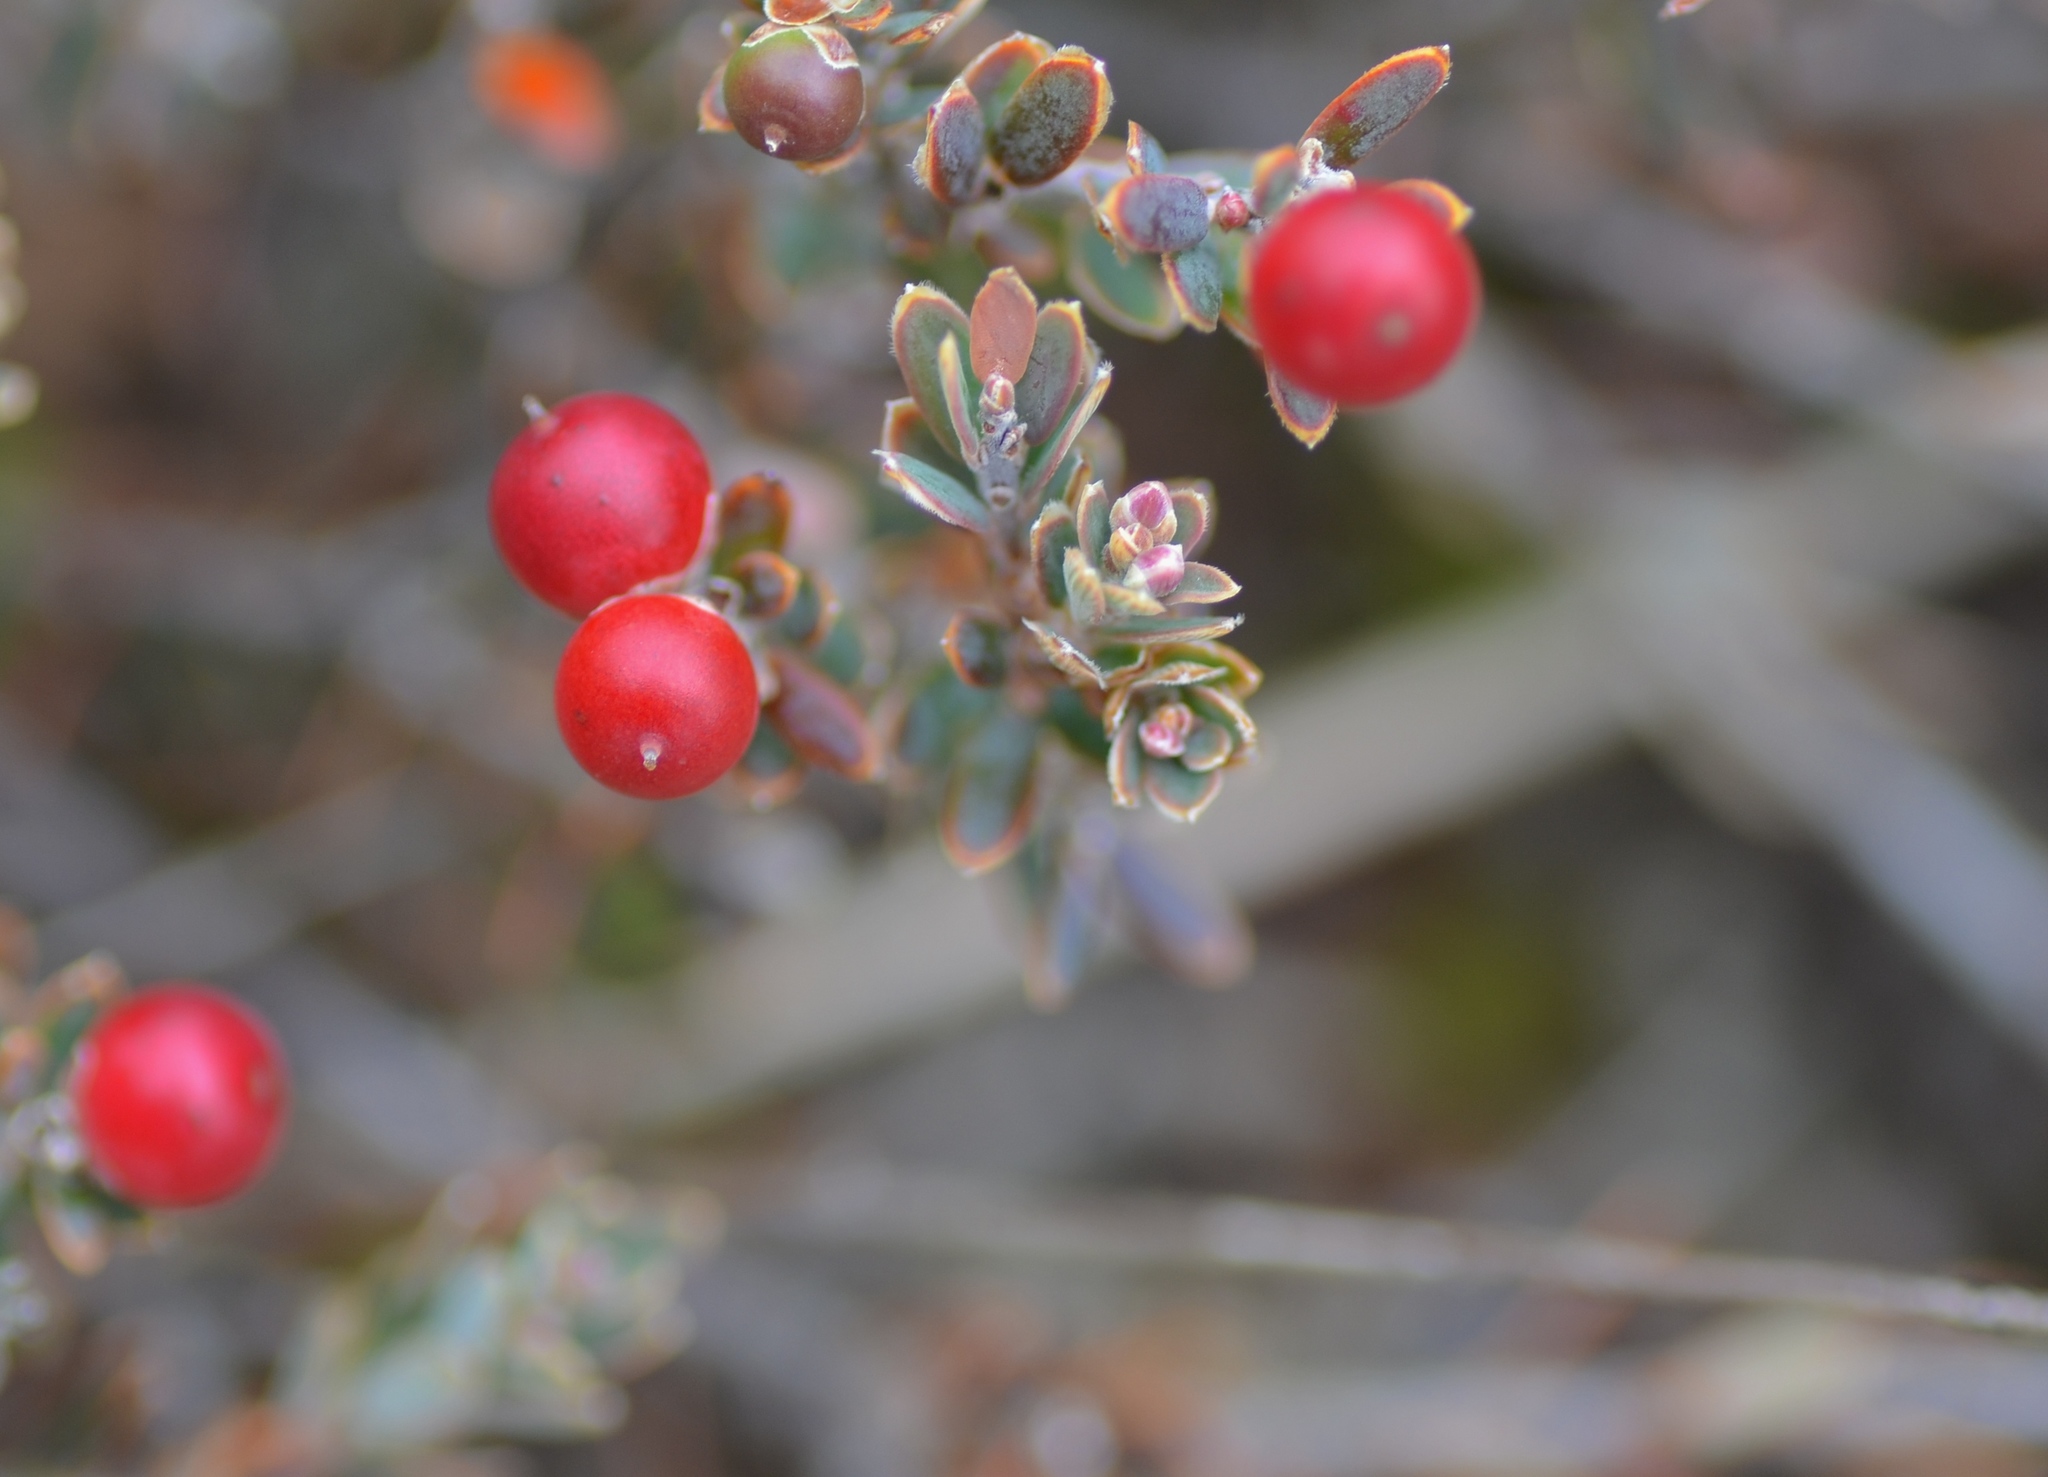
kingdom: Plantae
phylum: Tracheophyta
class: Magnoliopsida
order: Ericales
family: Ericaceae
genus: Acrothamnus
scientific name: Acrothamnus colensoi
